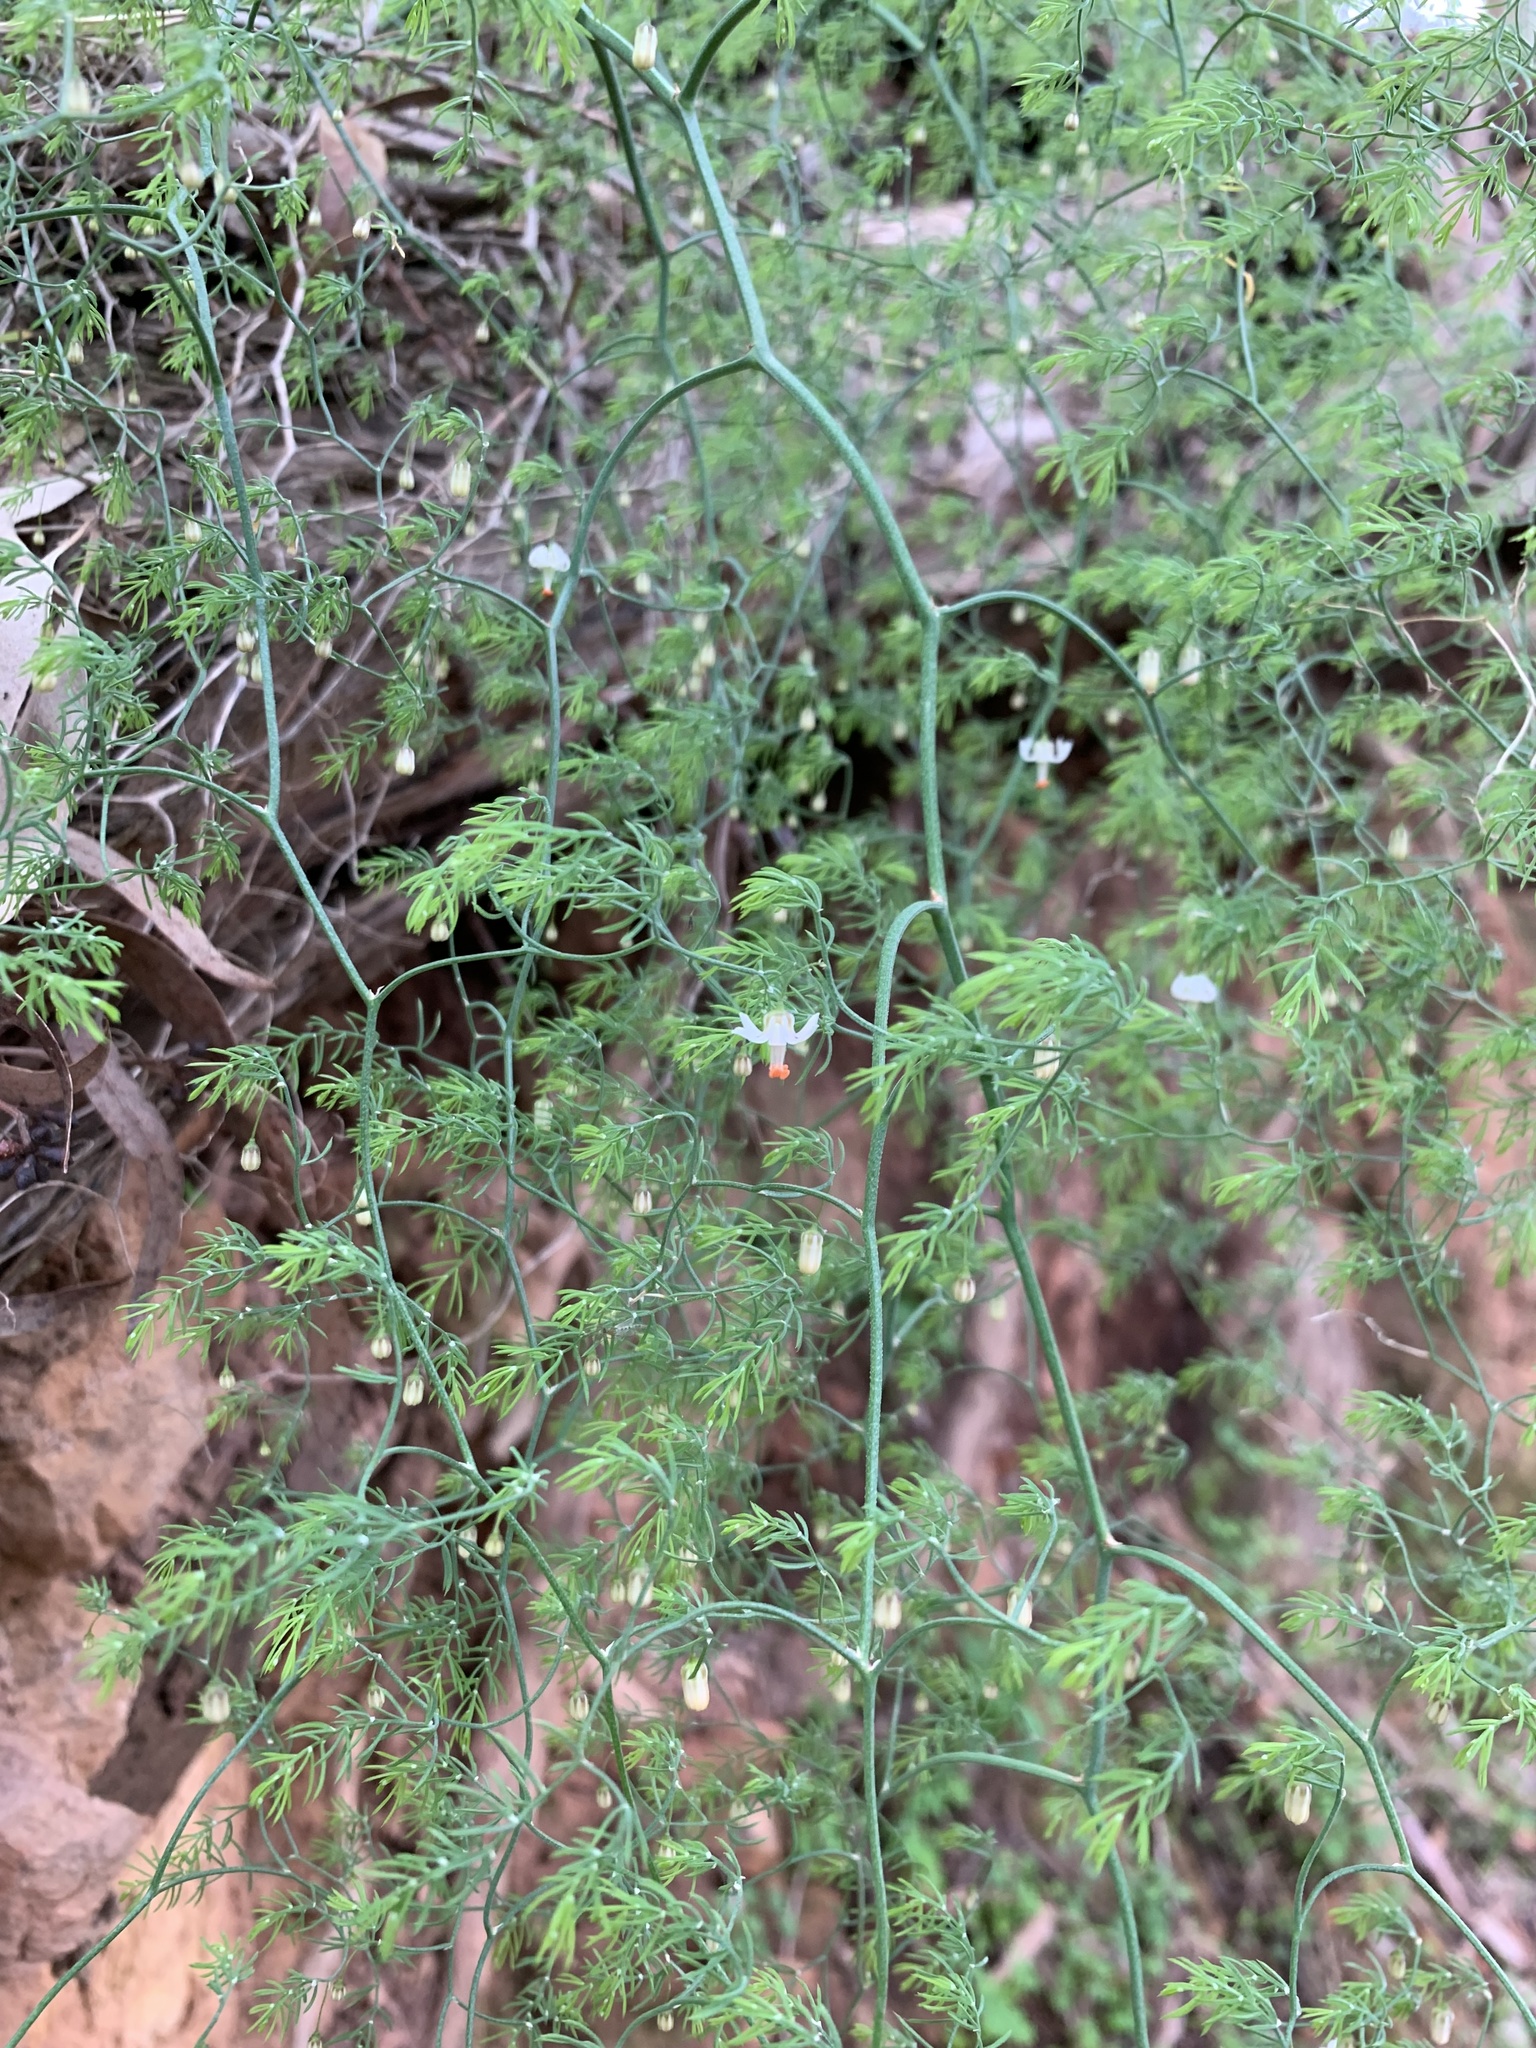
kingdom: Plantae
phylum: Tracheophyta
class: Liliopsida
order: Asparagales
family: Asparagaceae
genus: Asparagus
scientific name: Asparagus declinatus
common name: Bridal-creeper
